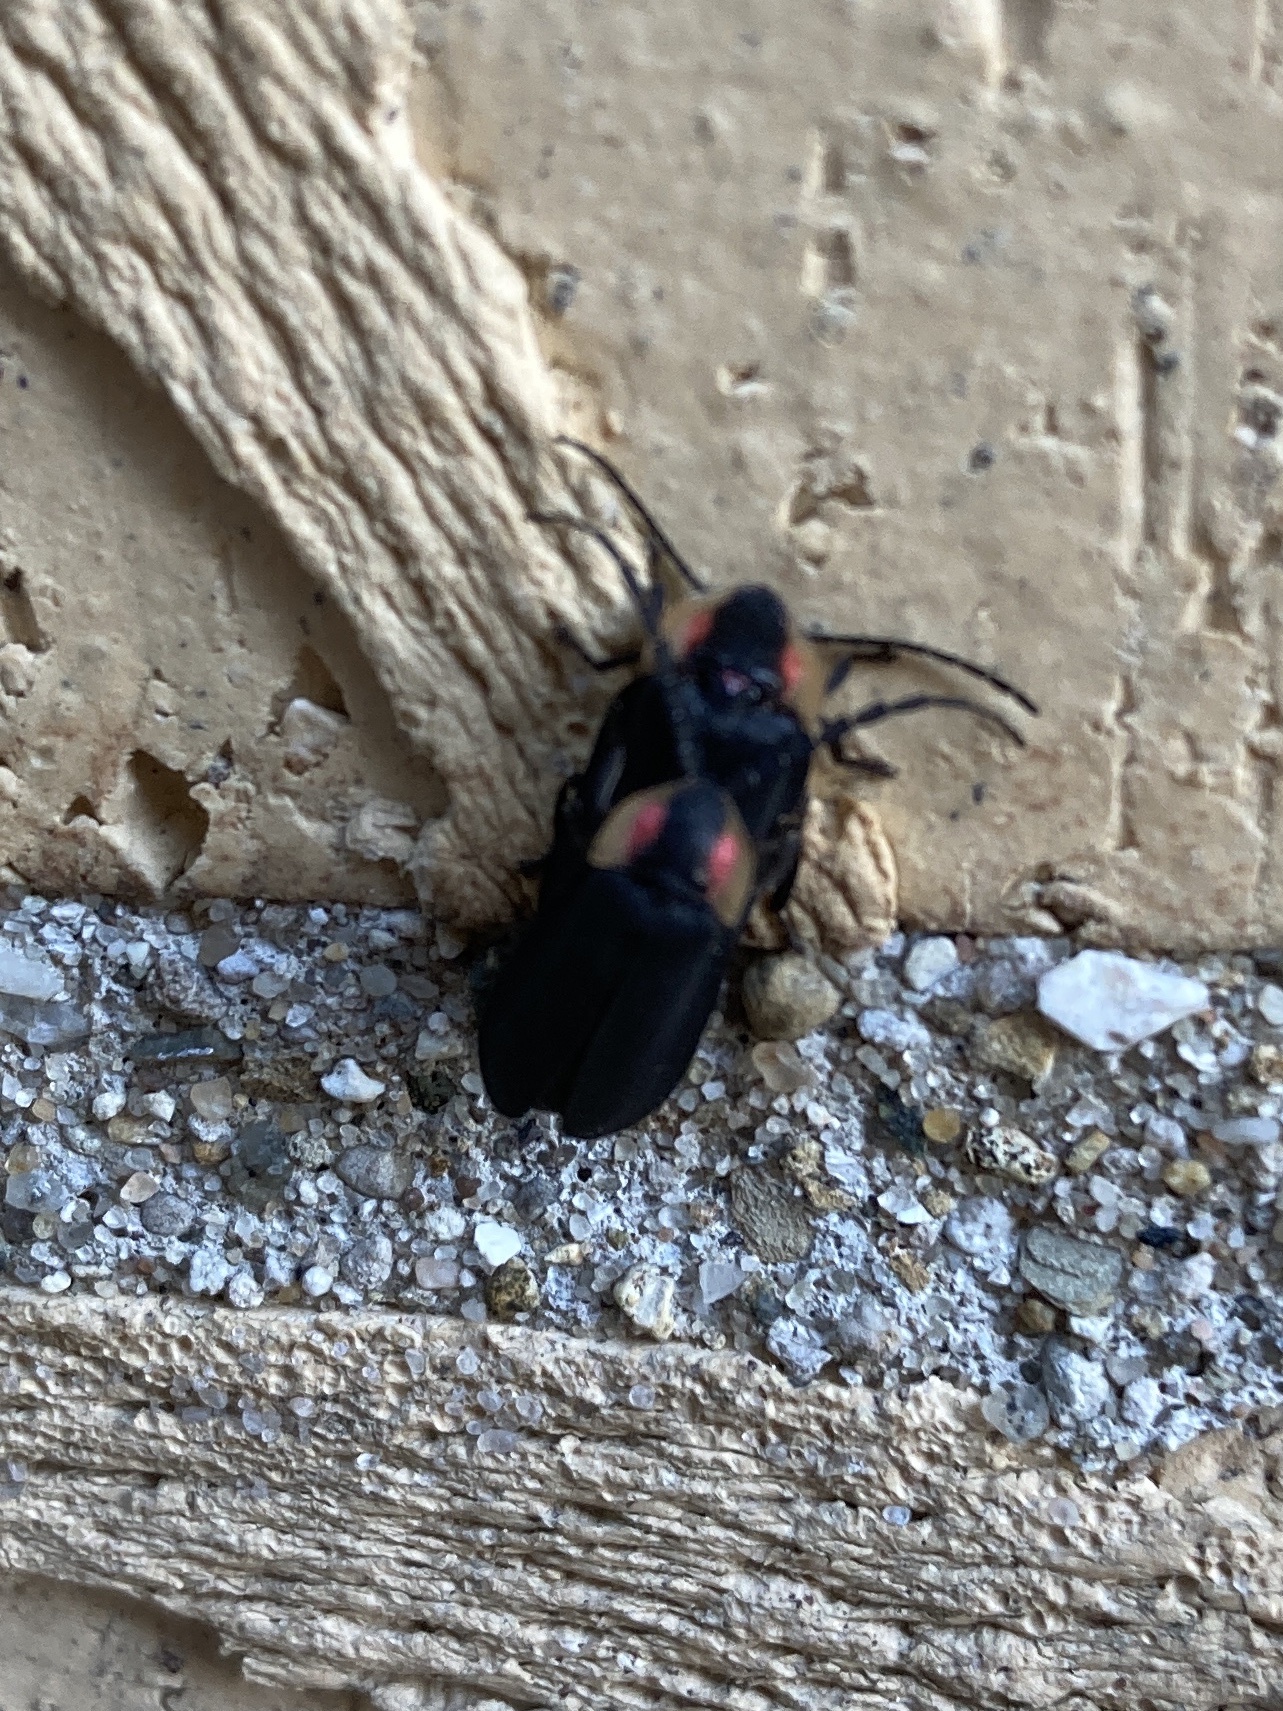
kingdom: Animalia
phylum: Arthropoda
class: Insecta
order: Coleoptera
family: Lampyridae
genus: Lucidota
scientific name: Lucidota atra
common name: Black firefly
